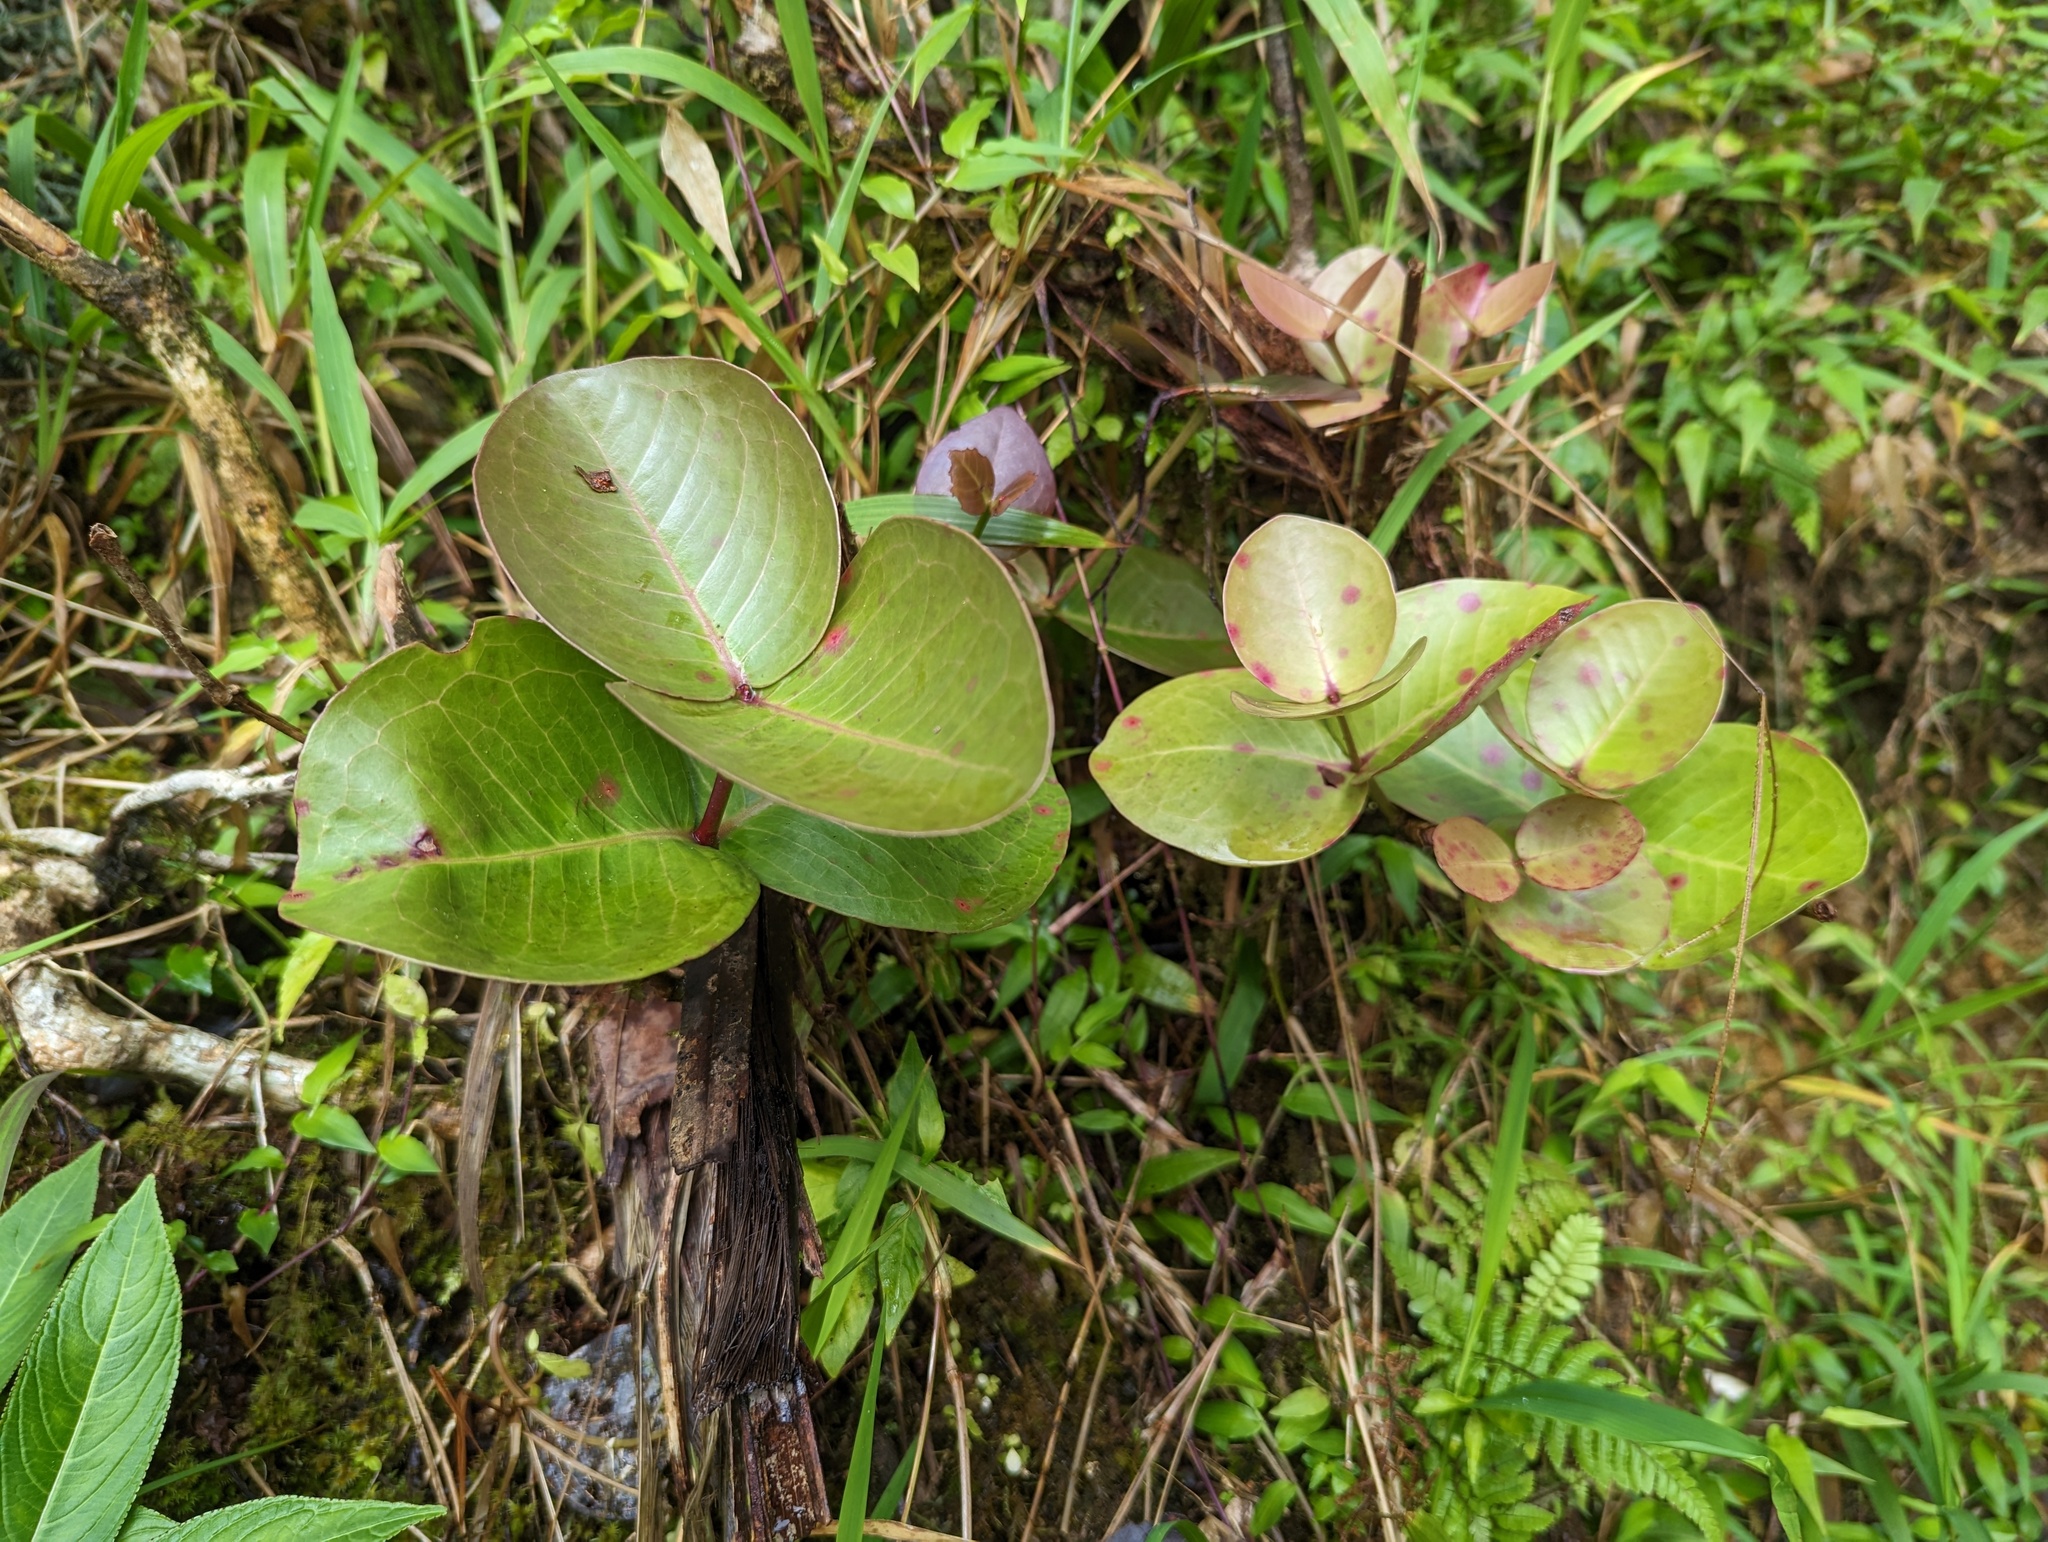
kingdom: Plantae
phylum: Tracheophyta
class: Magnoliopsida
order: Myrtales
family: Myrtaceae
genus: Eugenia
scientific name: Eugenia borinquensis
